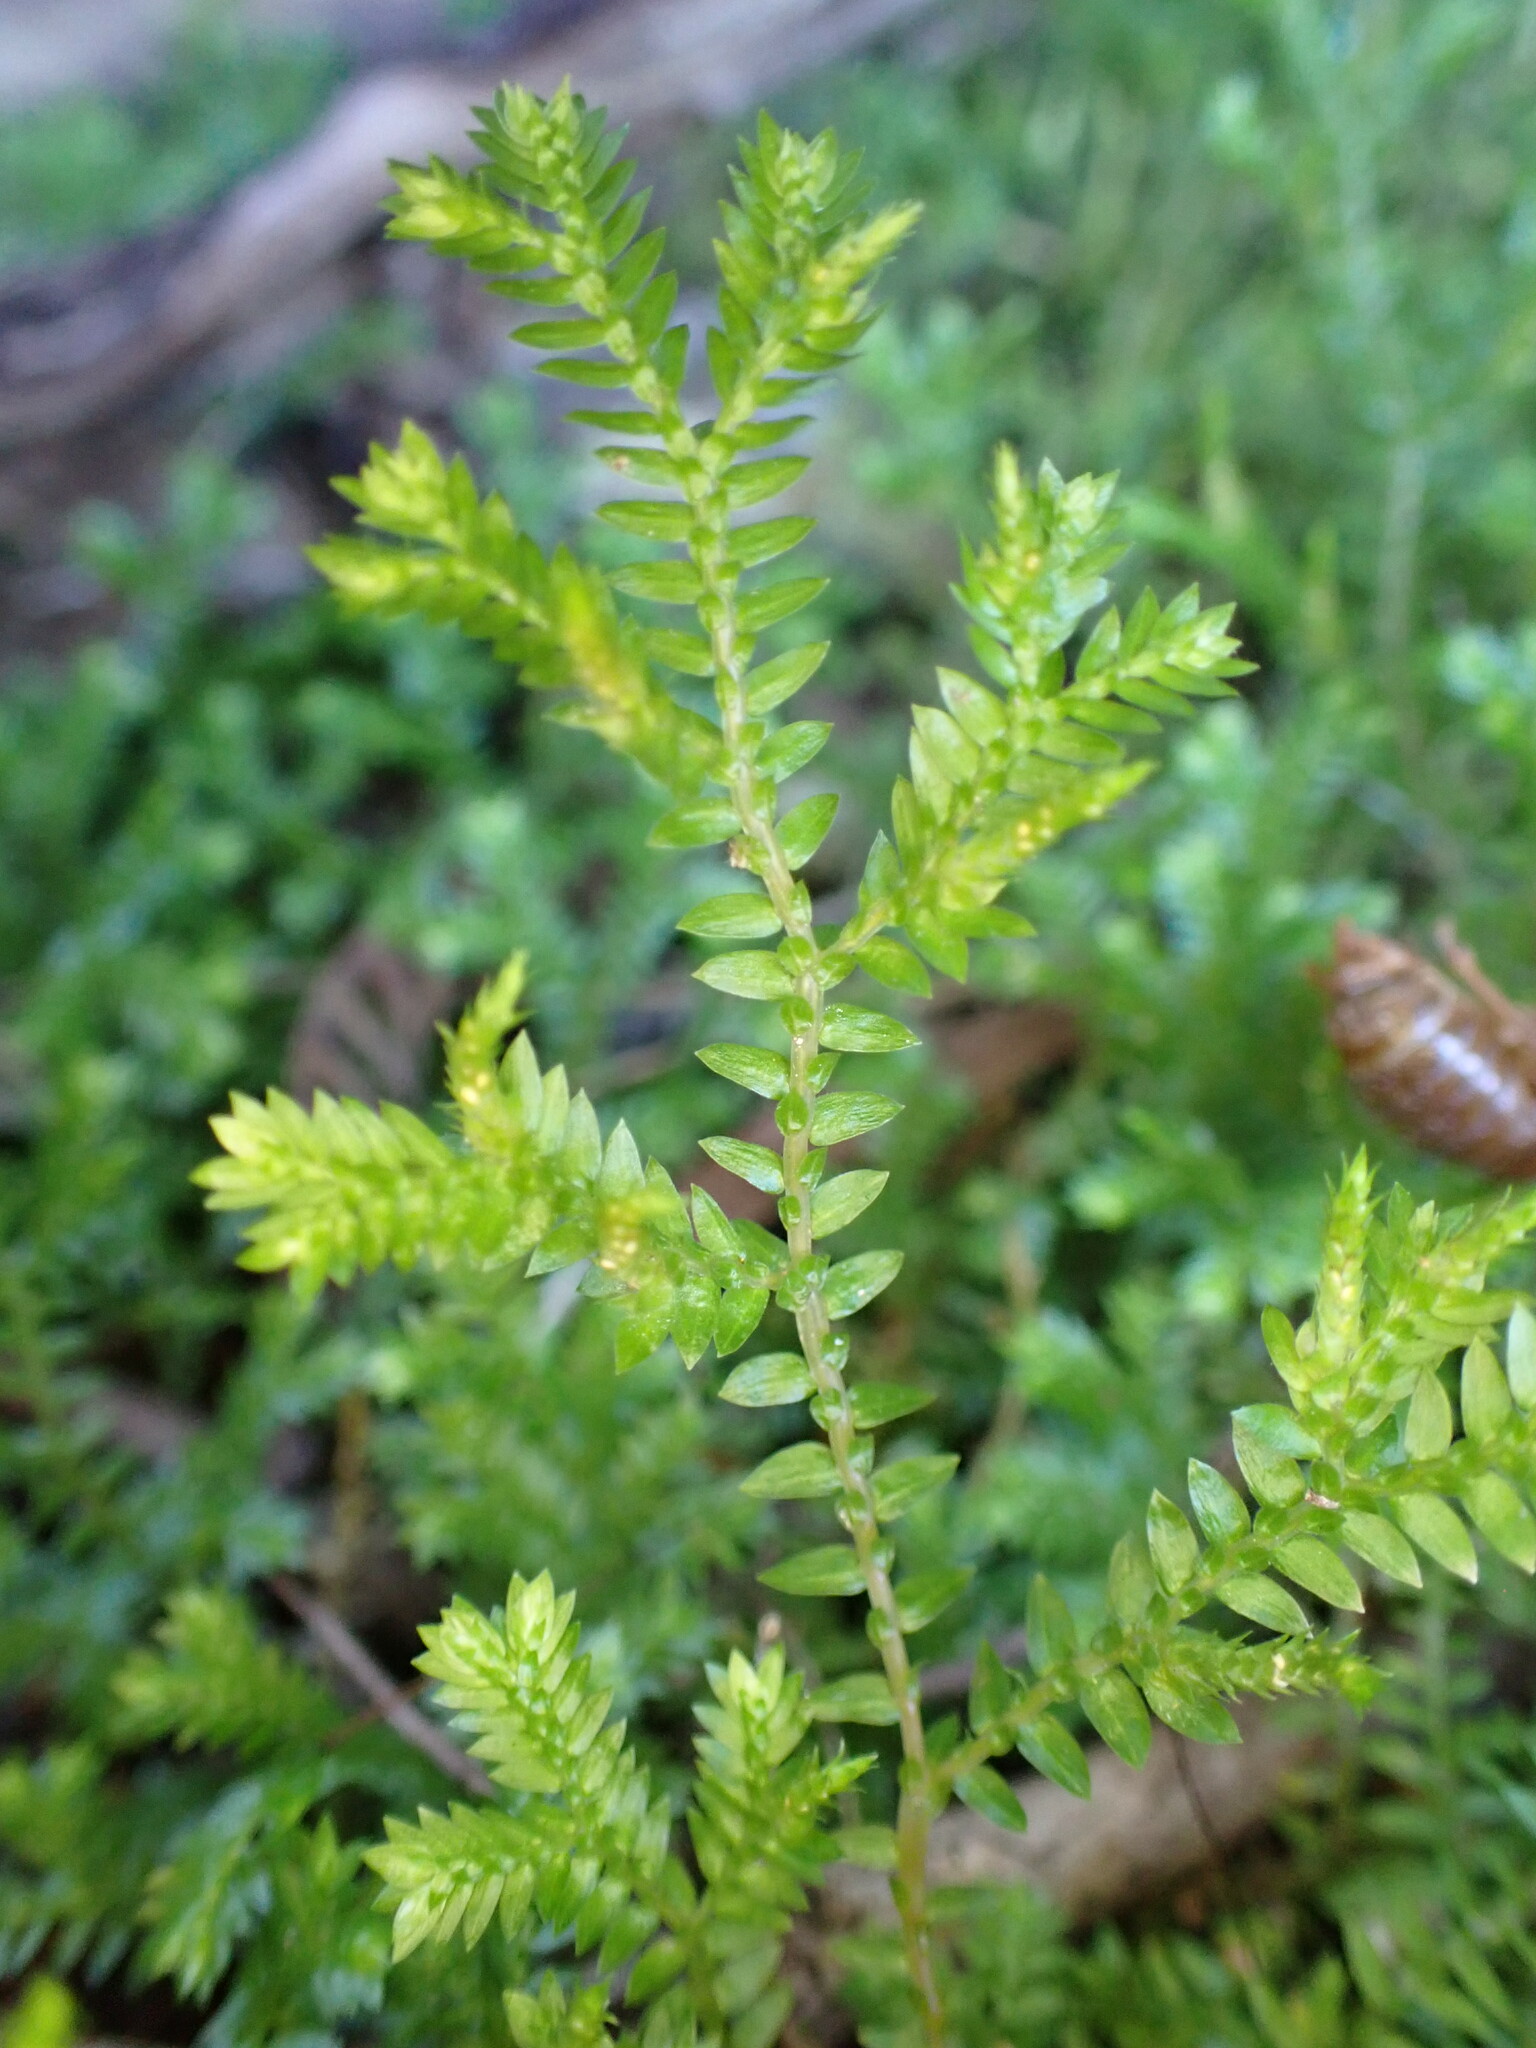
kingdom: Plantae
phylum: Tracheophyta
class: Lycopodiopsida
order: Selaginellales
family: Selaginellaceae
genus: Selaginella
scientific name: Selaginella kraussiana
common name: Krauss' spikemoss
